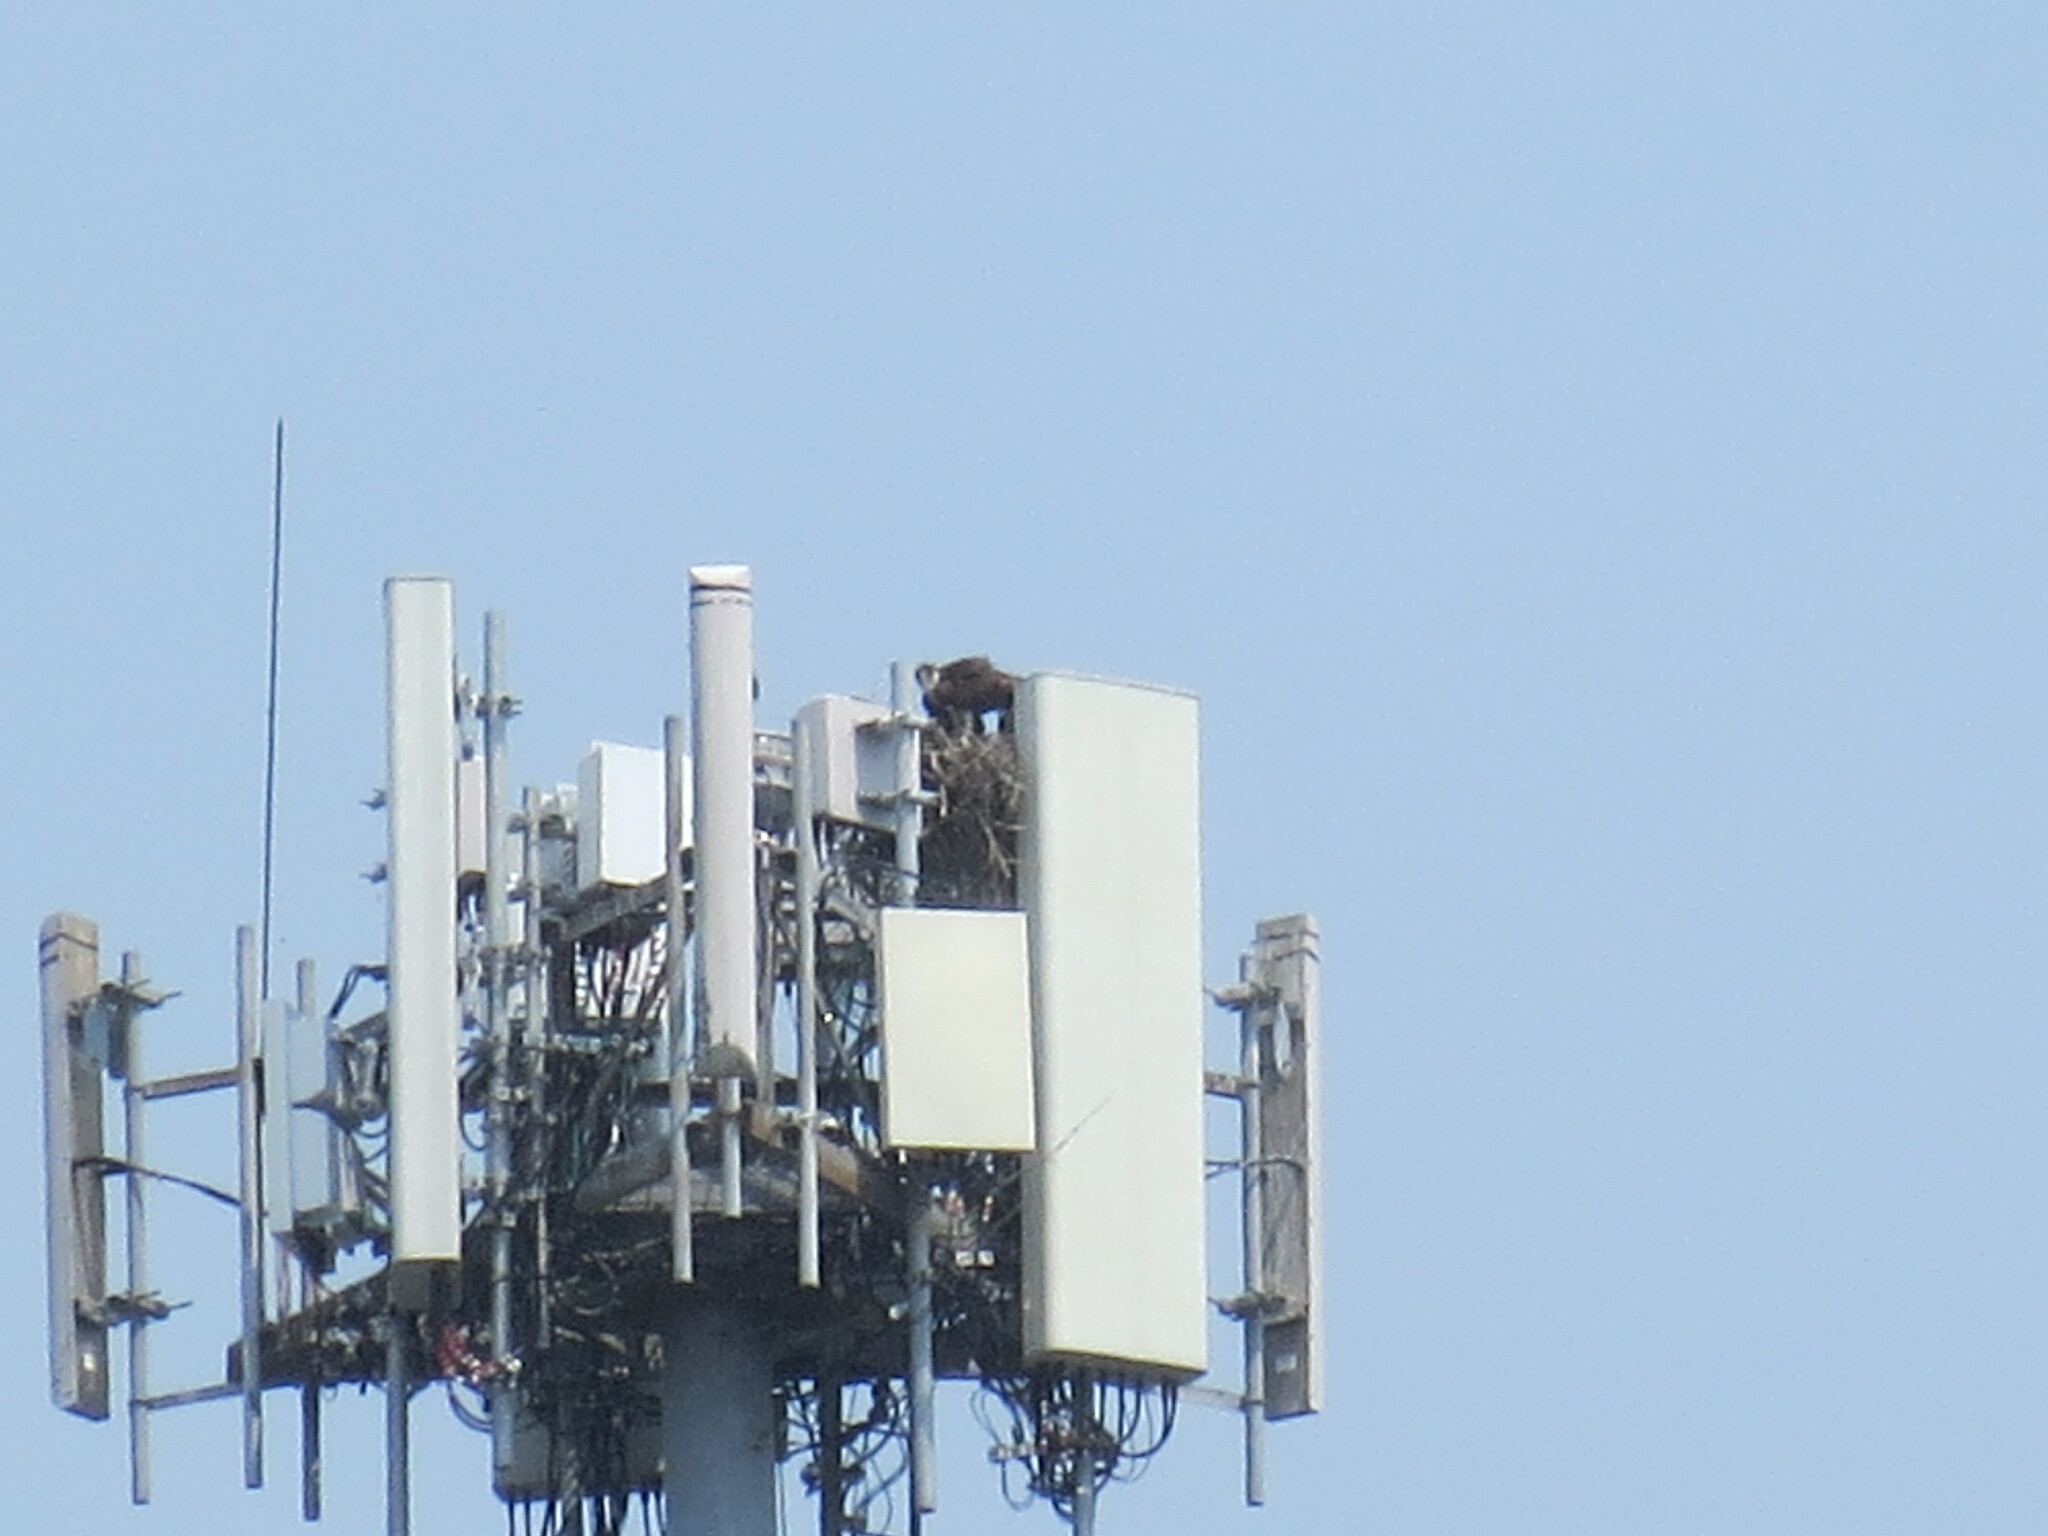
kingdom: Animalia
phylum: Chordata
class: Aves
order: Accipitriformes
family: Pandionidae
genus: Pandion
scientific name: Pandion haliaetus
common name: Osprey
